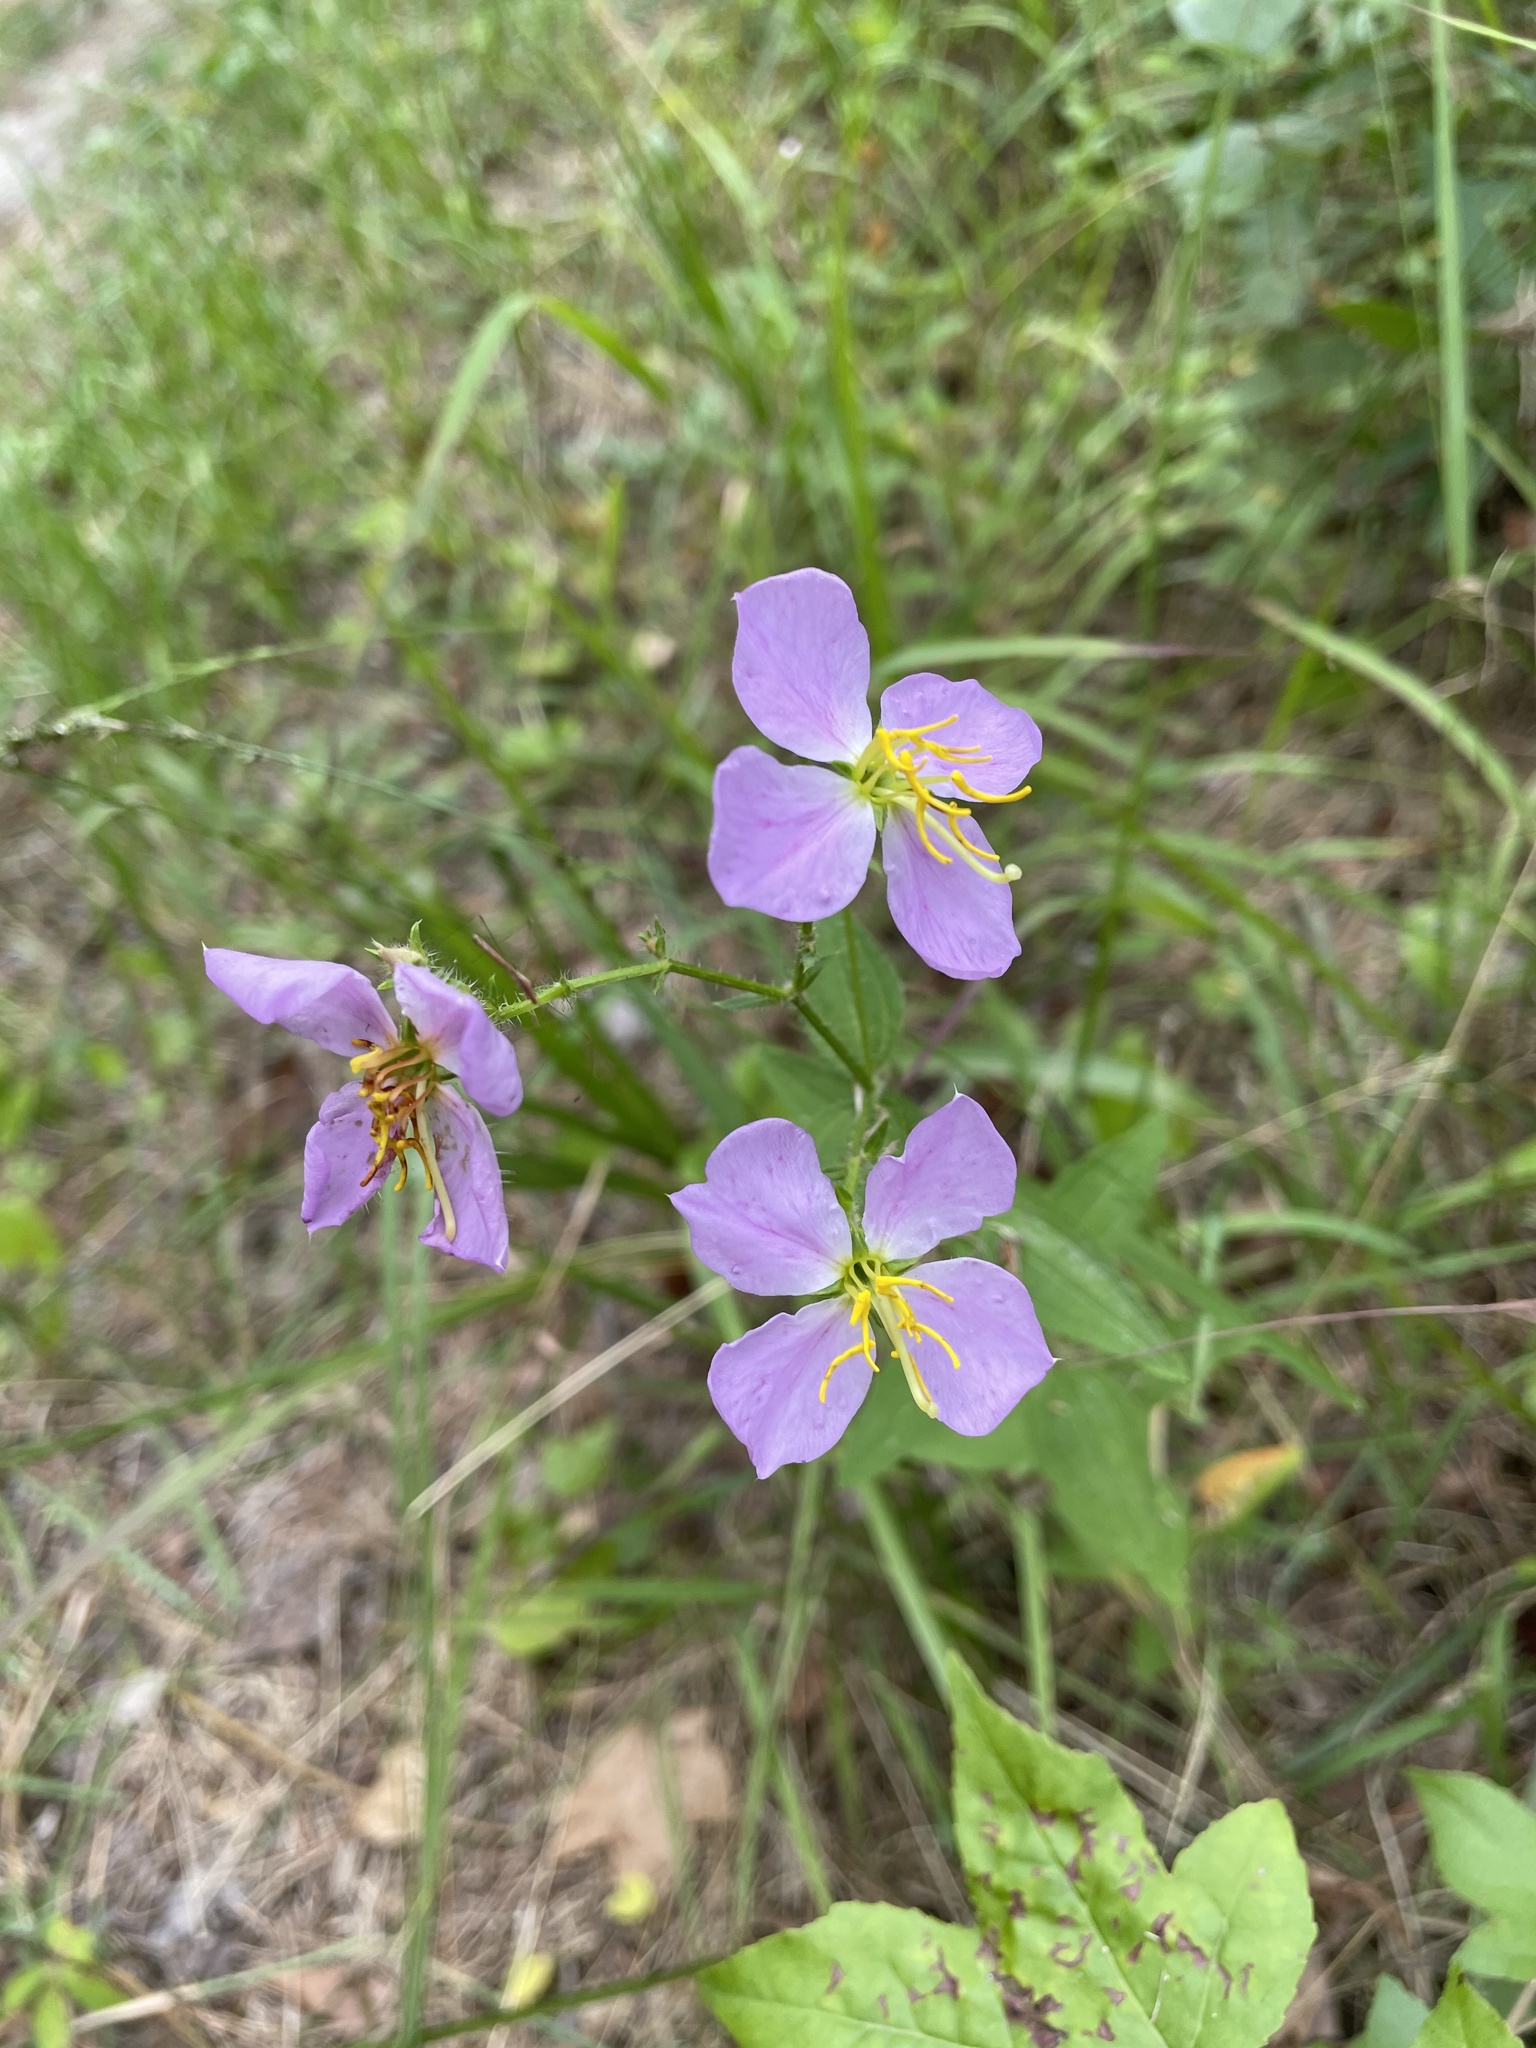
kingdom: Plantae
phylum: Tracheophyta
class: Magnoliopsida
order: Myrtales
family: Melastomataceae
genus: Rhexia
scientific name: Rhexia mariana
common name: Dull meadow-pitcher
